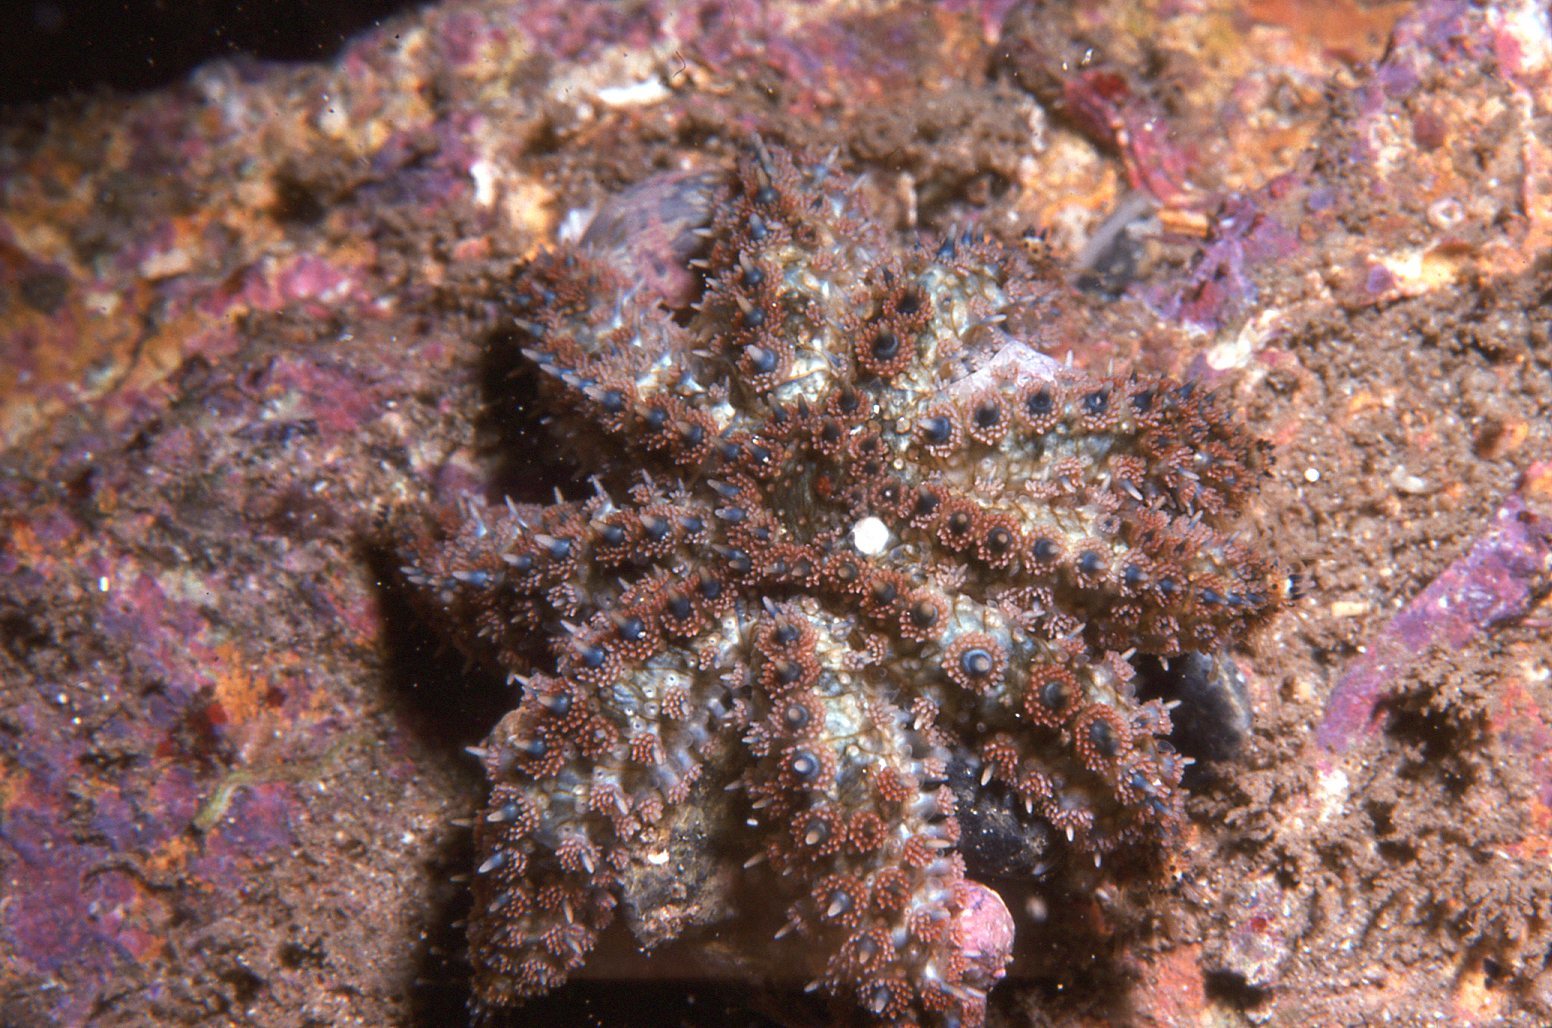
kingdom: Animalia
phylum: Echinodermata
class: Asteroidea
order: Forcipulatida
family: Asteriidae
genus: Coscinasterias
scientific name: Coscinasterias muricata
